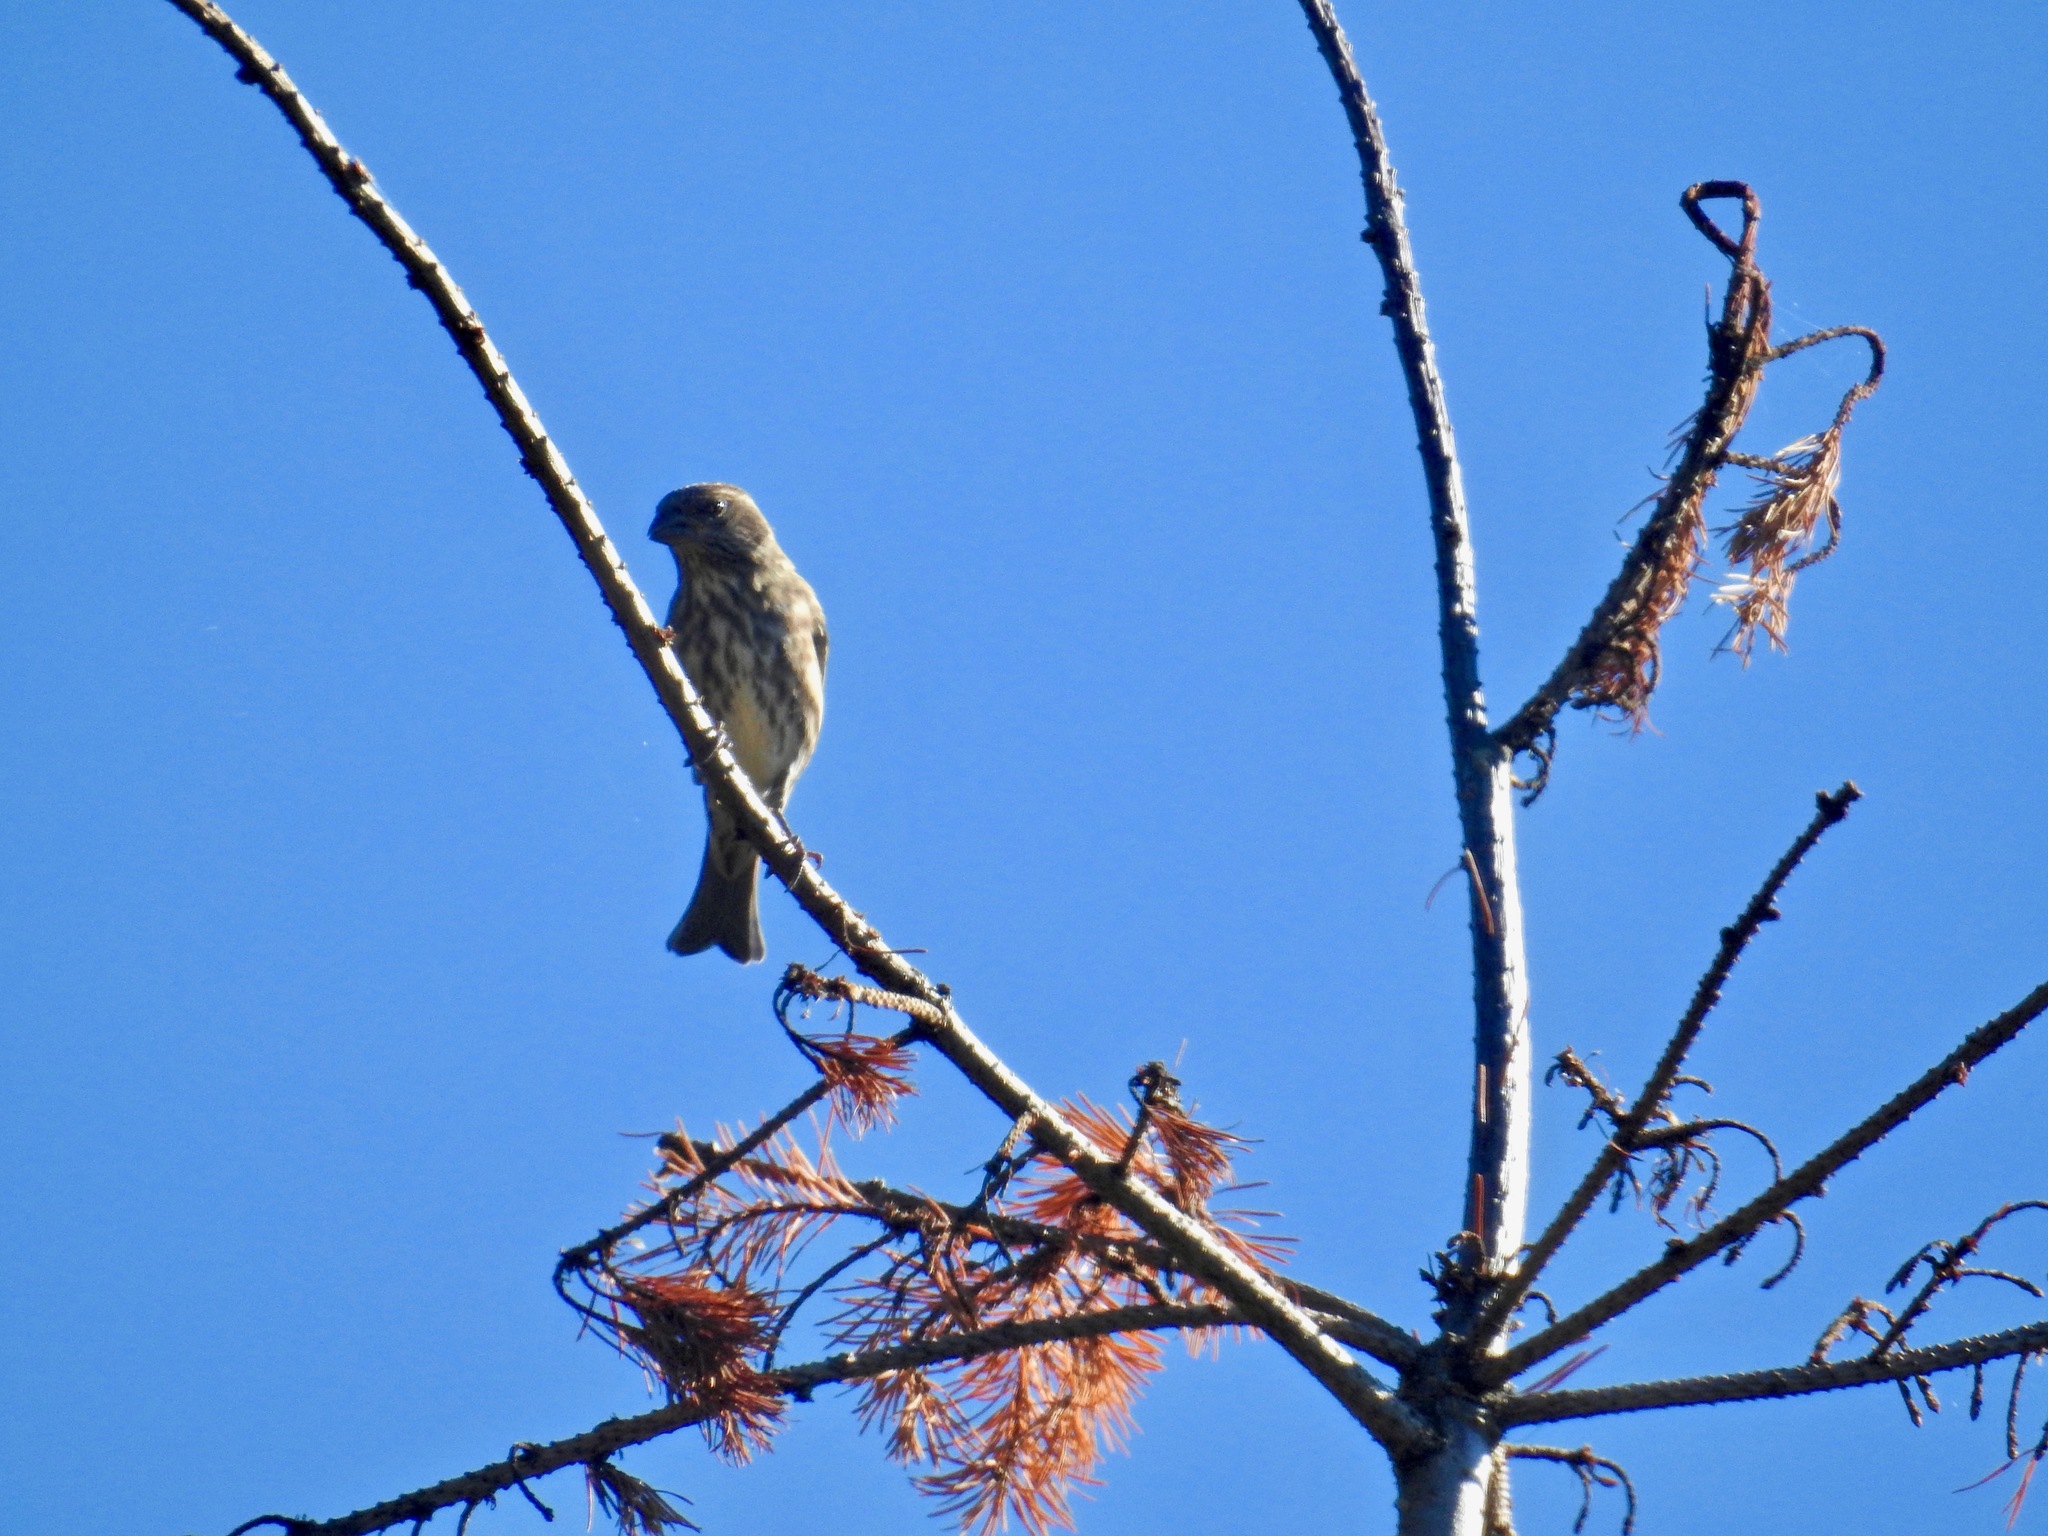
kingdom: Animalia
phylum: Chordata
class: Aves
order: Passeriformes
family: Fringillidae
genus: Haemorhous
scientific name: Haemorhous purpureus
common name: Purple finch
